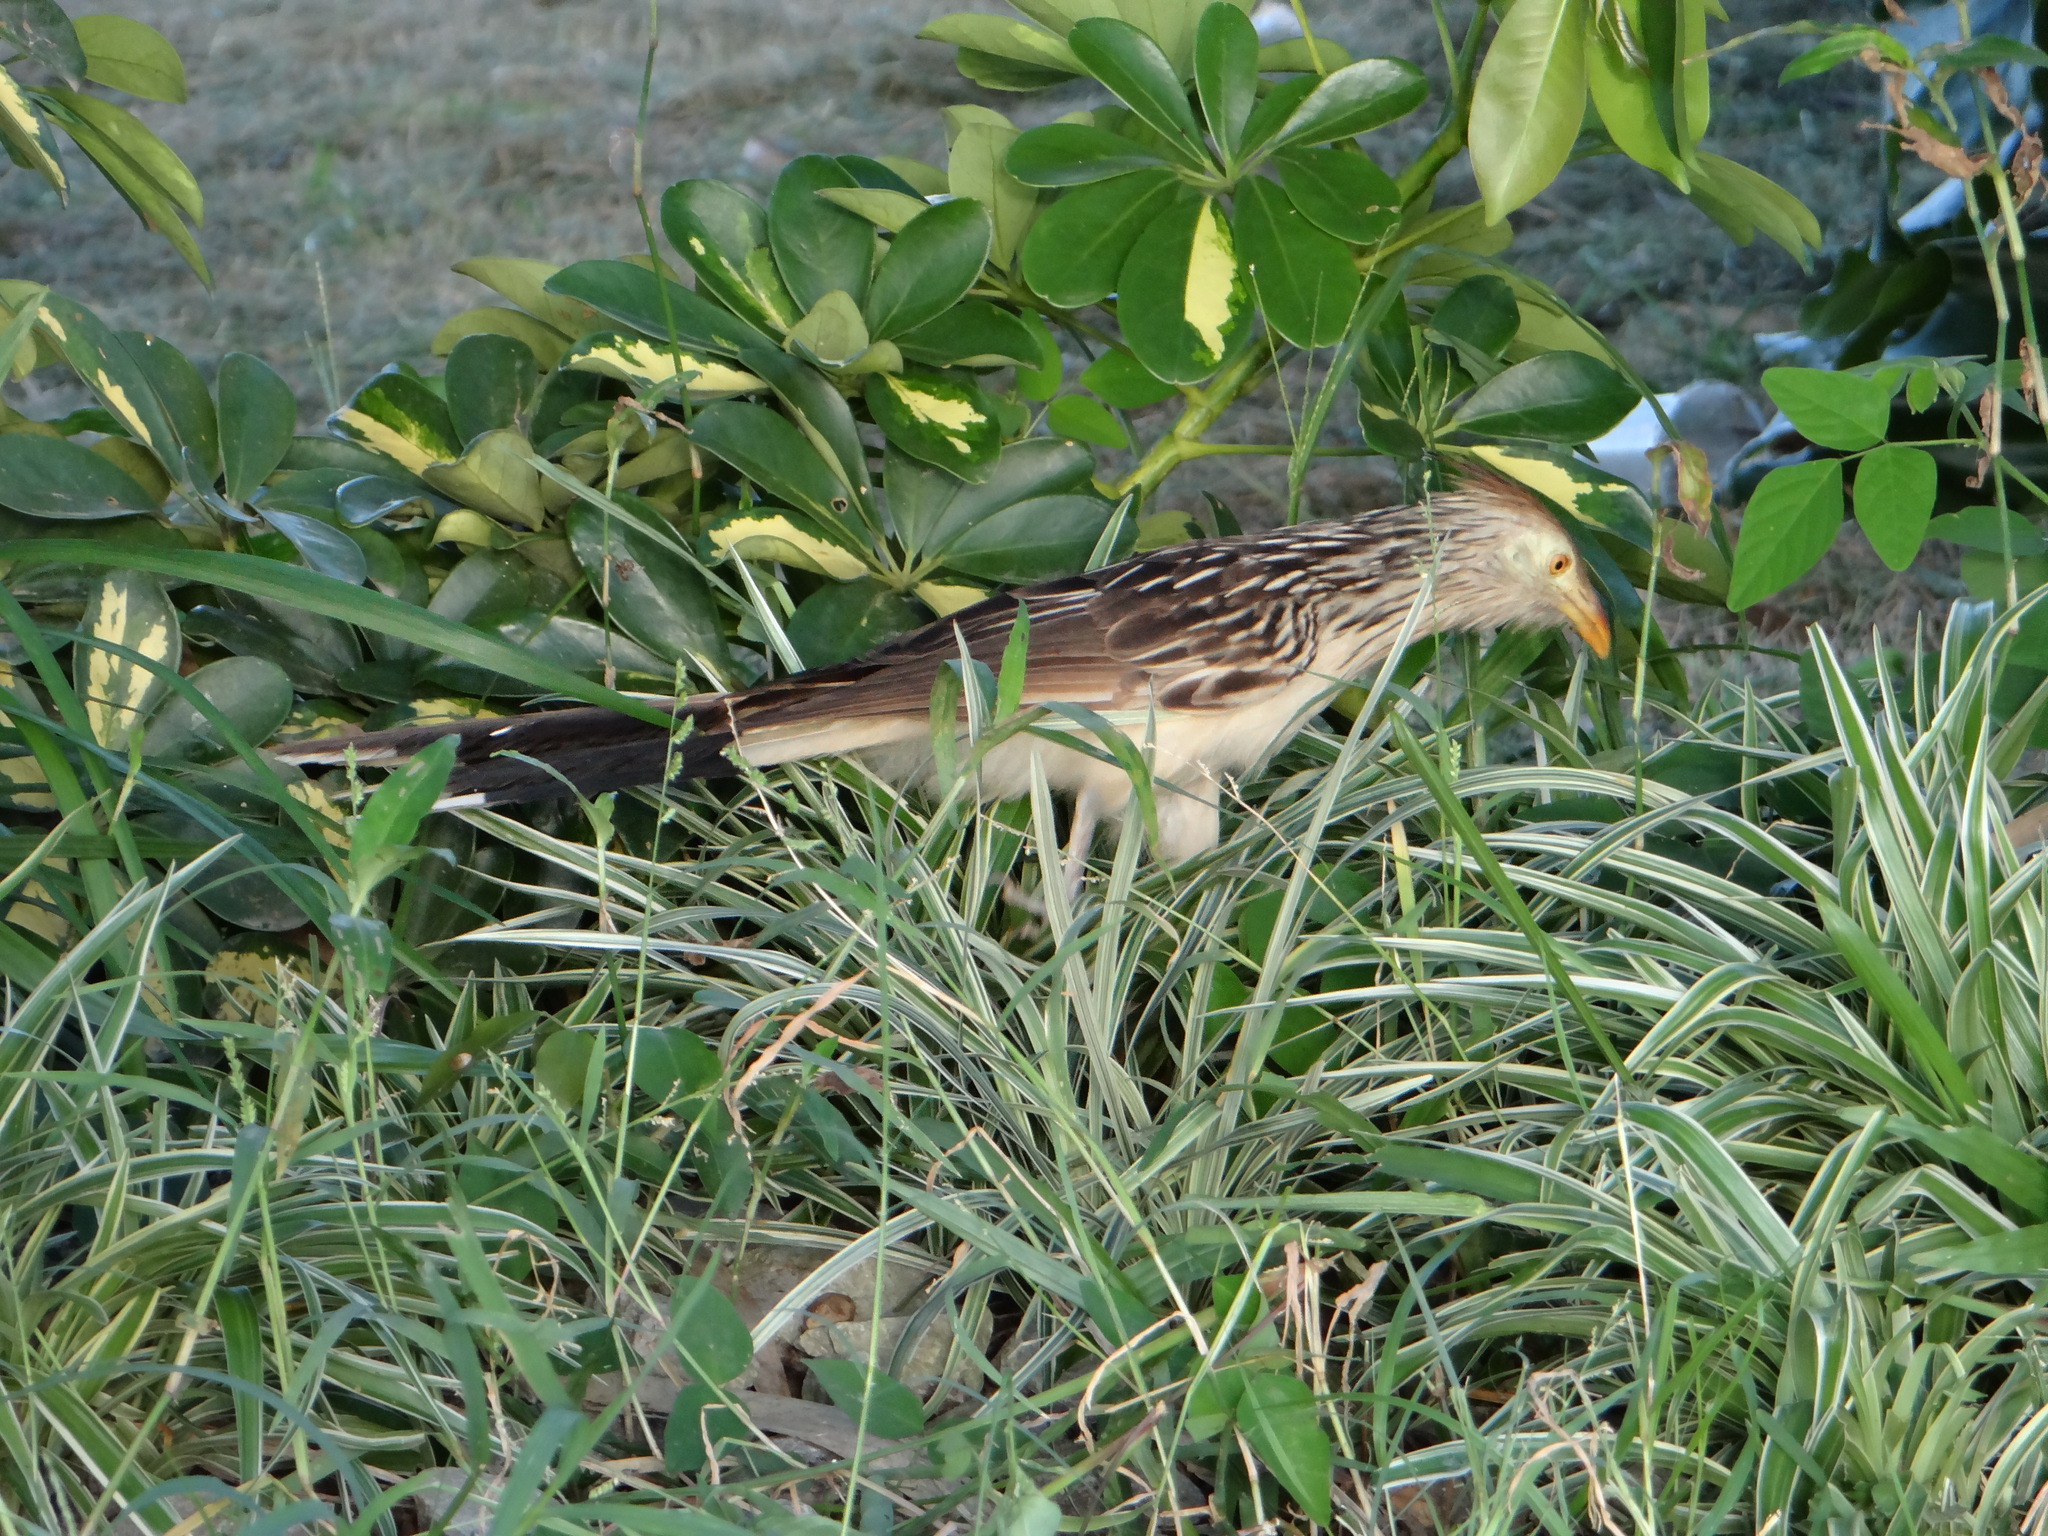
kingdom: Animalia
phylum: Chordata
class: Aves
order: Cuculiformes
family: Cuculidae
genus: Guira
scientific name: Guira guira
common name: Guira cuckoo
